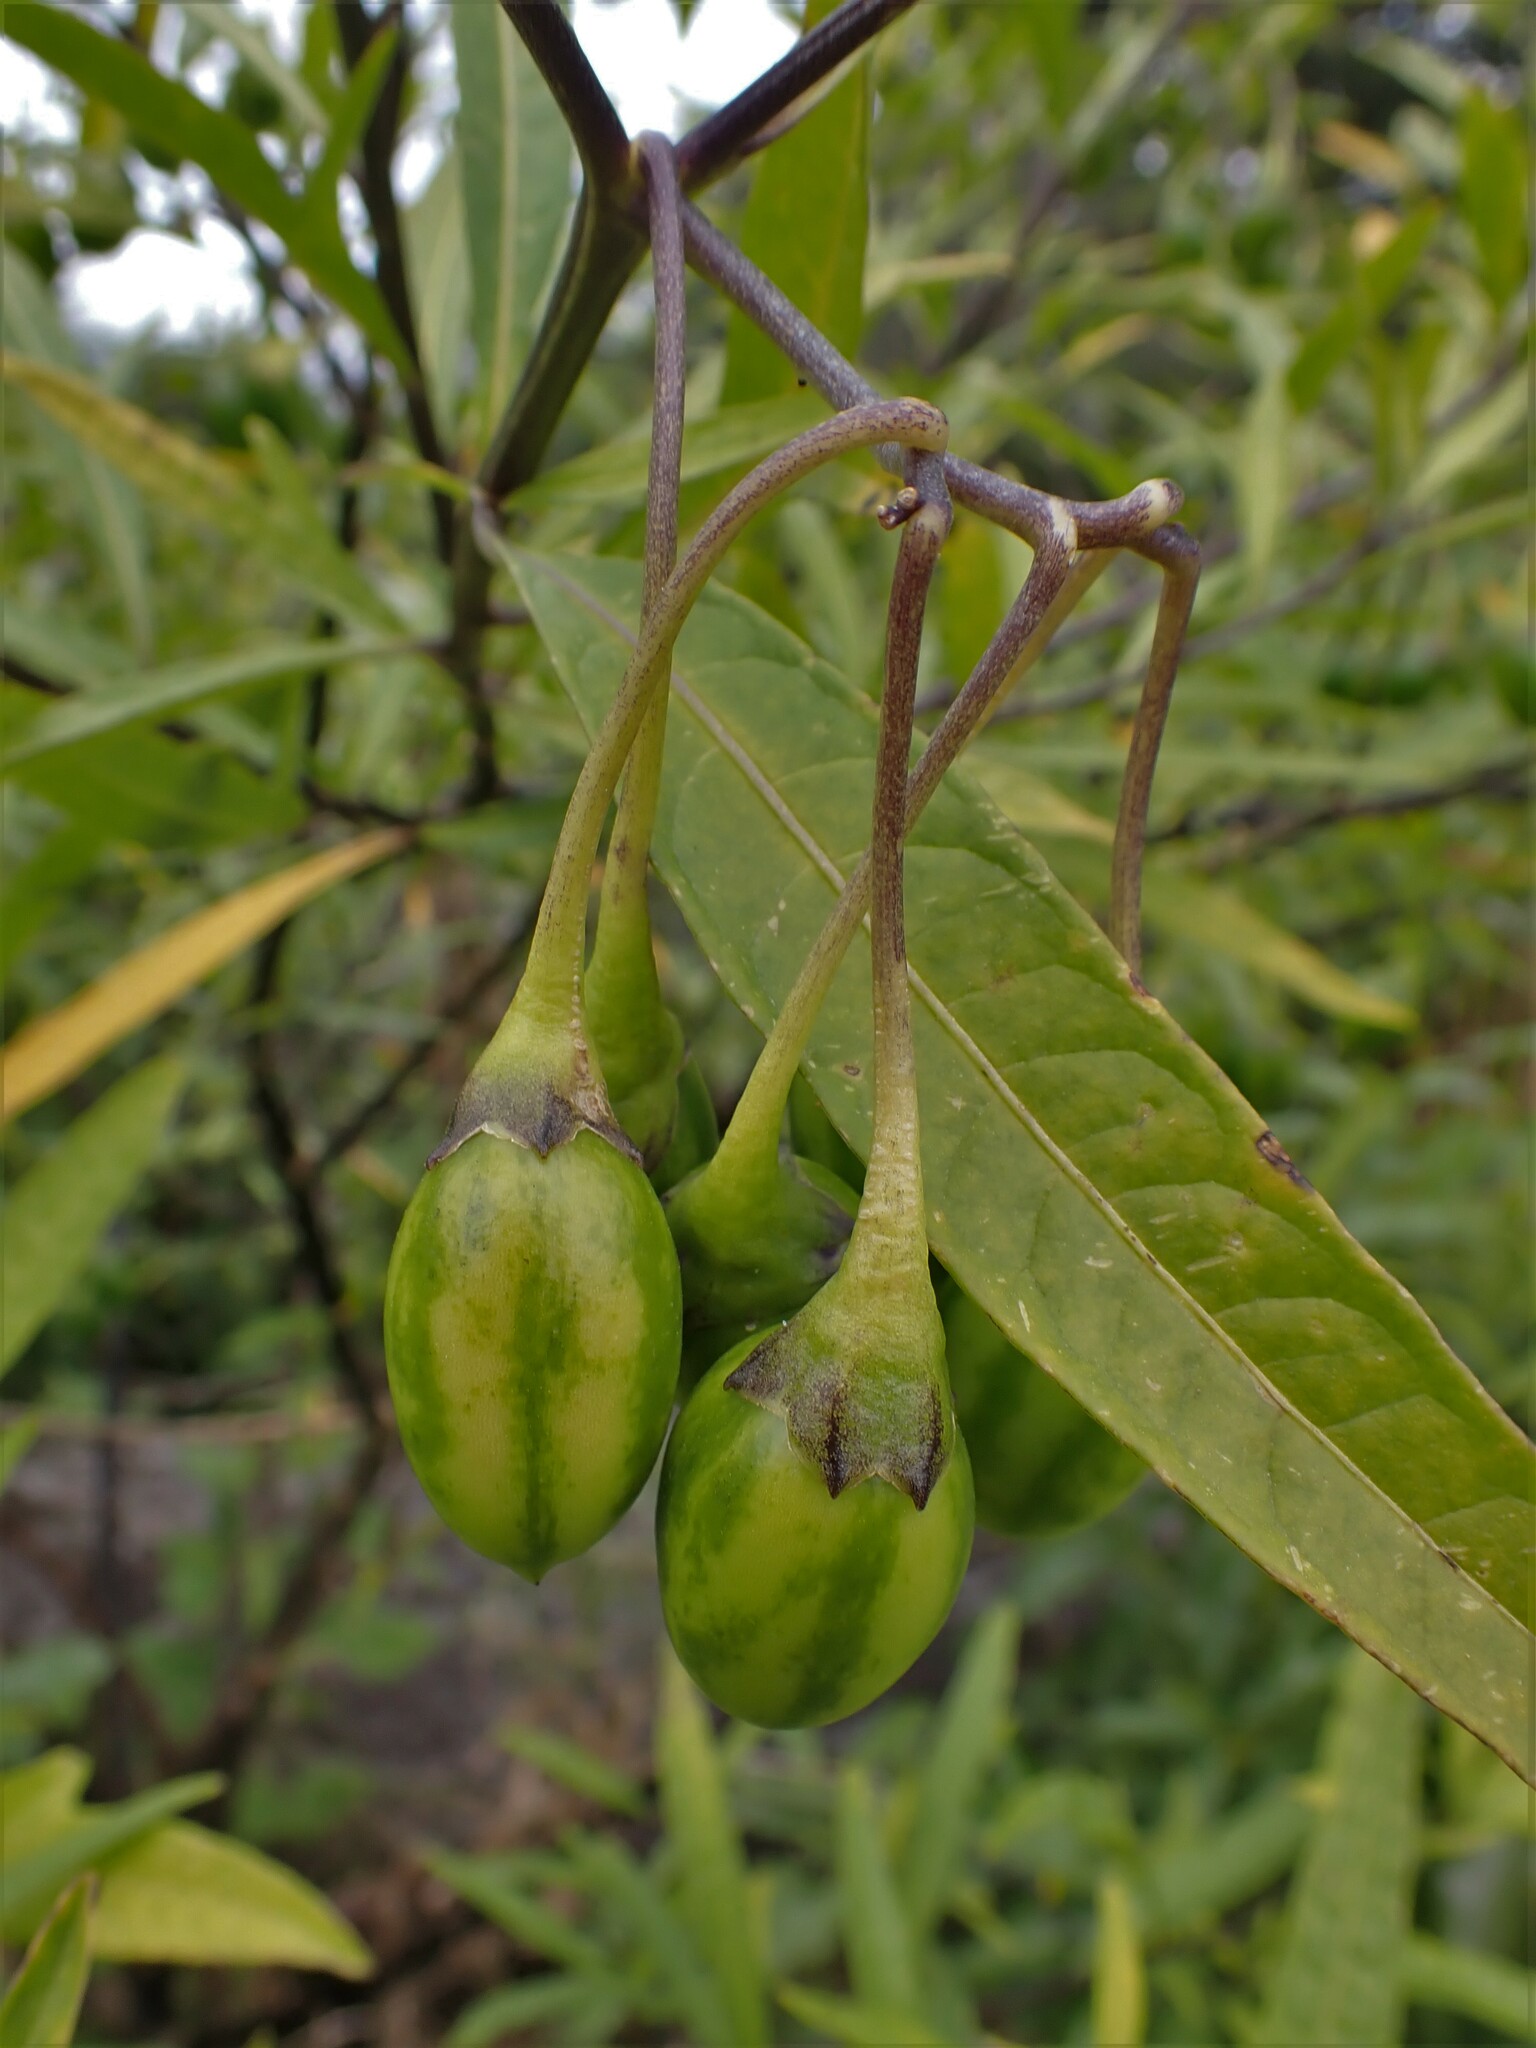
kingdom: Plantae
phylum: Tracheophyta
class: Magnoliopsida
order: Solanales
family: Solanaceae
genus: Solanum
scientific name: Solanum
